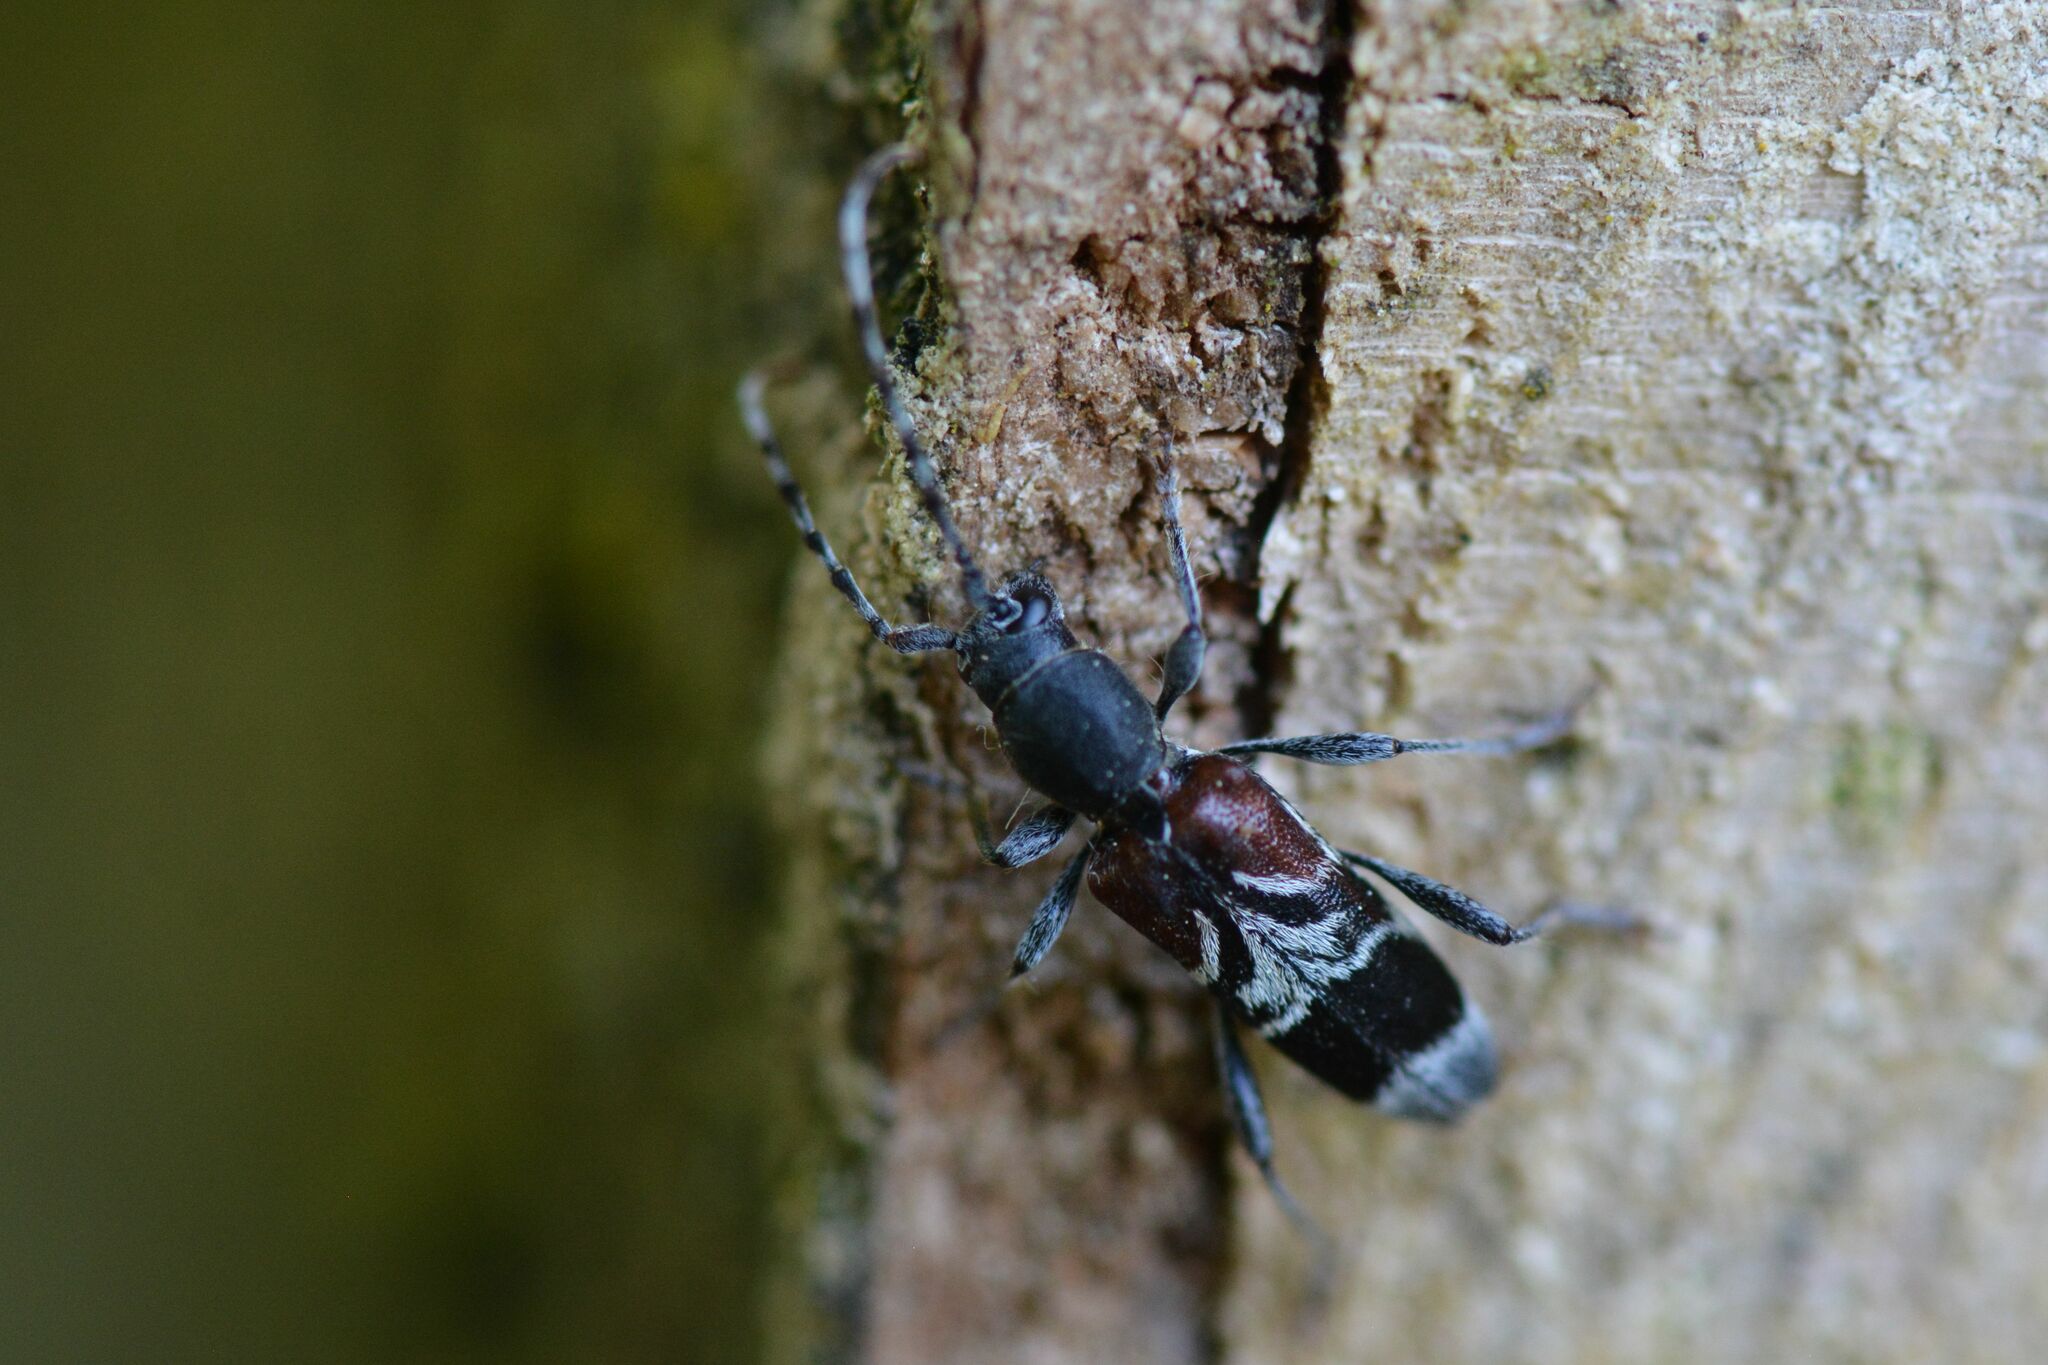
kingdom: Animalia
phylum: Arthropoda
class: Insecta
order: Coleoptera
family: Cerambycidae
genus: Anaglyptus
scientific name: Anaglyptus mysticus
